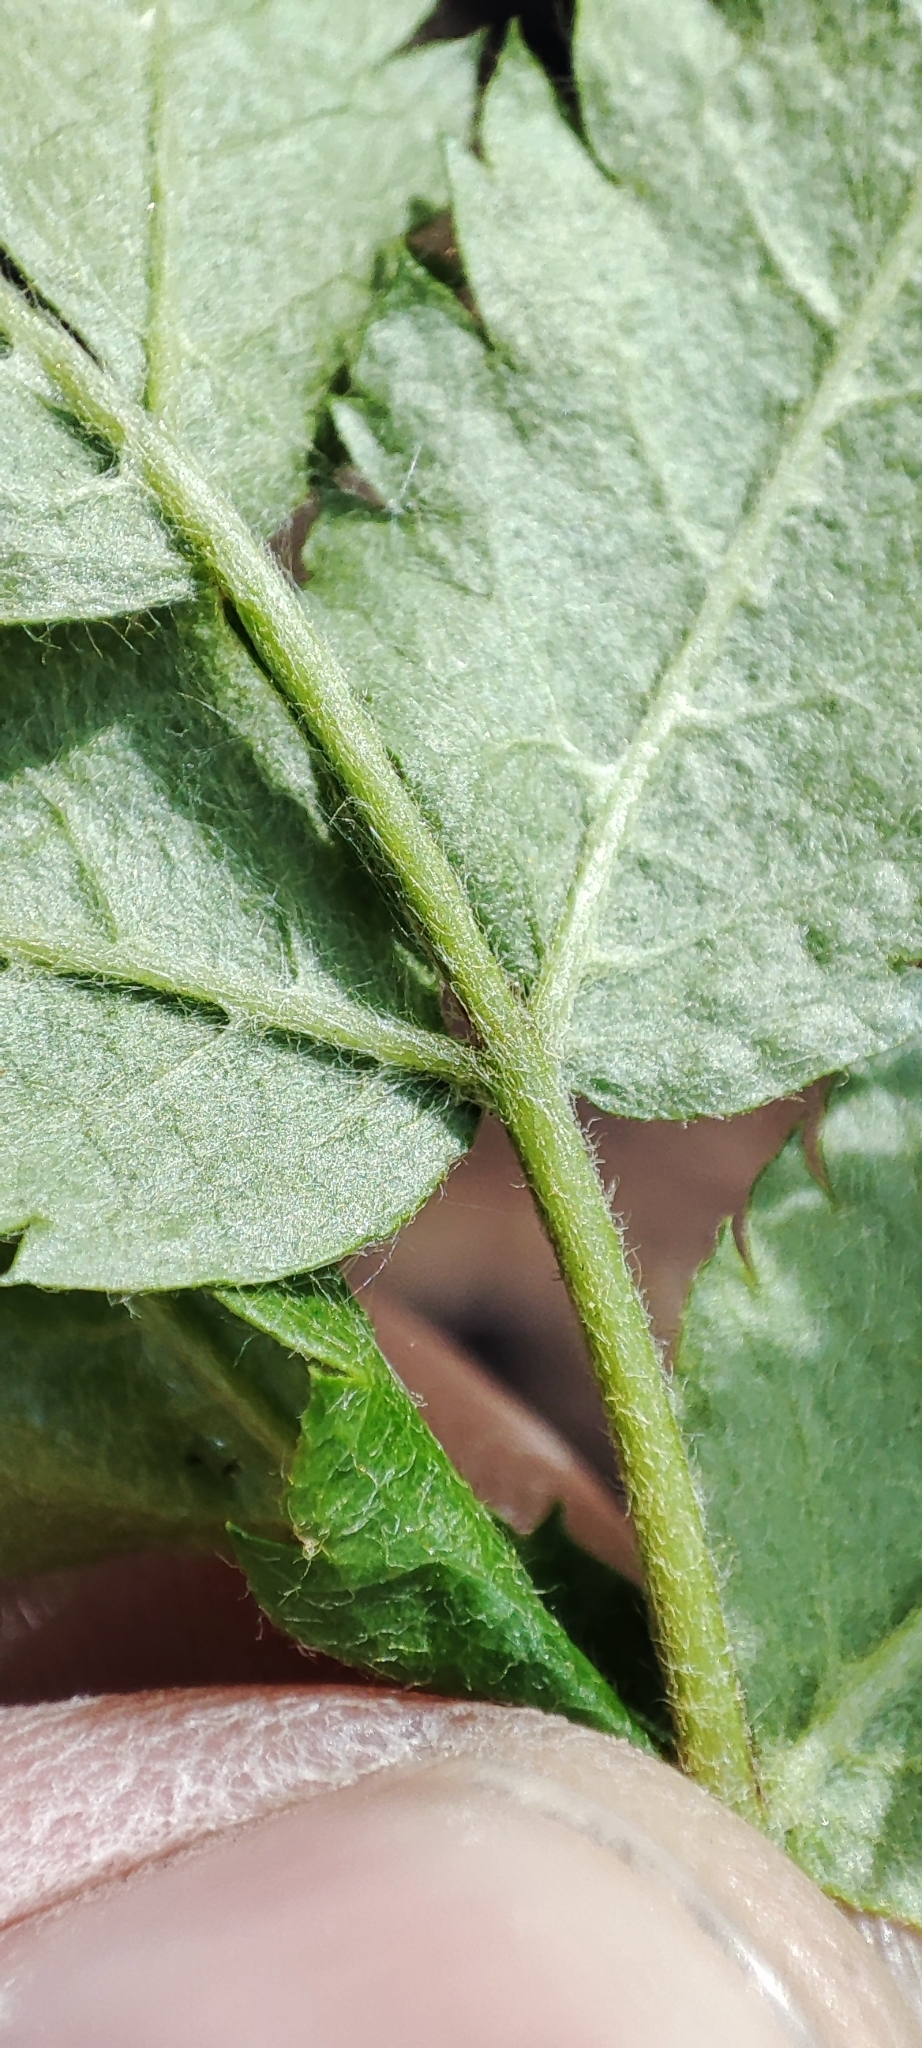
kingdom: Plantae
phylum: Tracheophyta
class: Magnoliopsida
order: Rosales
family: Rosaceae
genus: Sorbus
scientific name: Sorbus aucuparia
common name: Rowan
